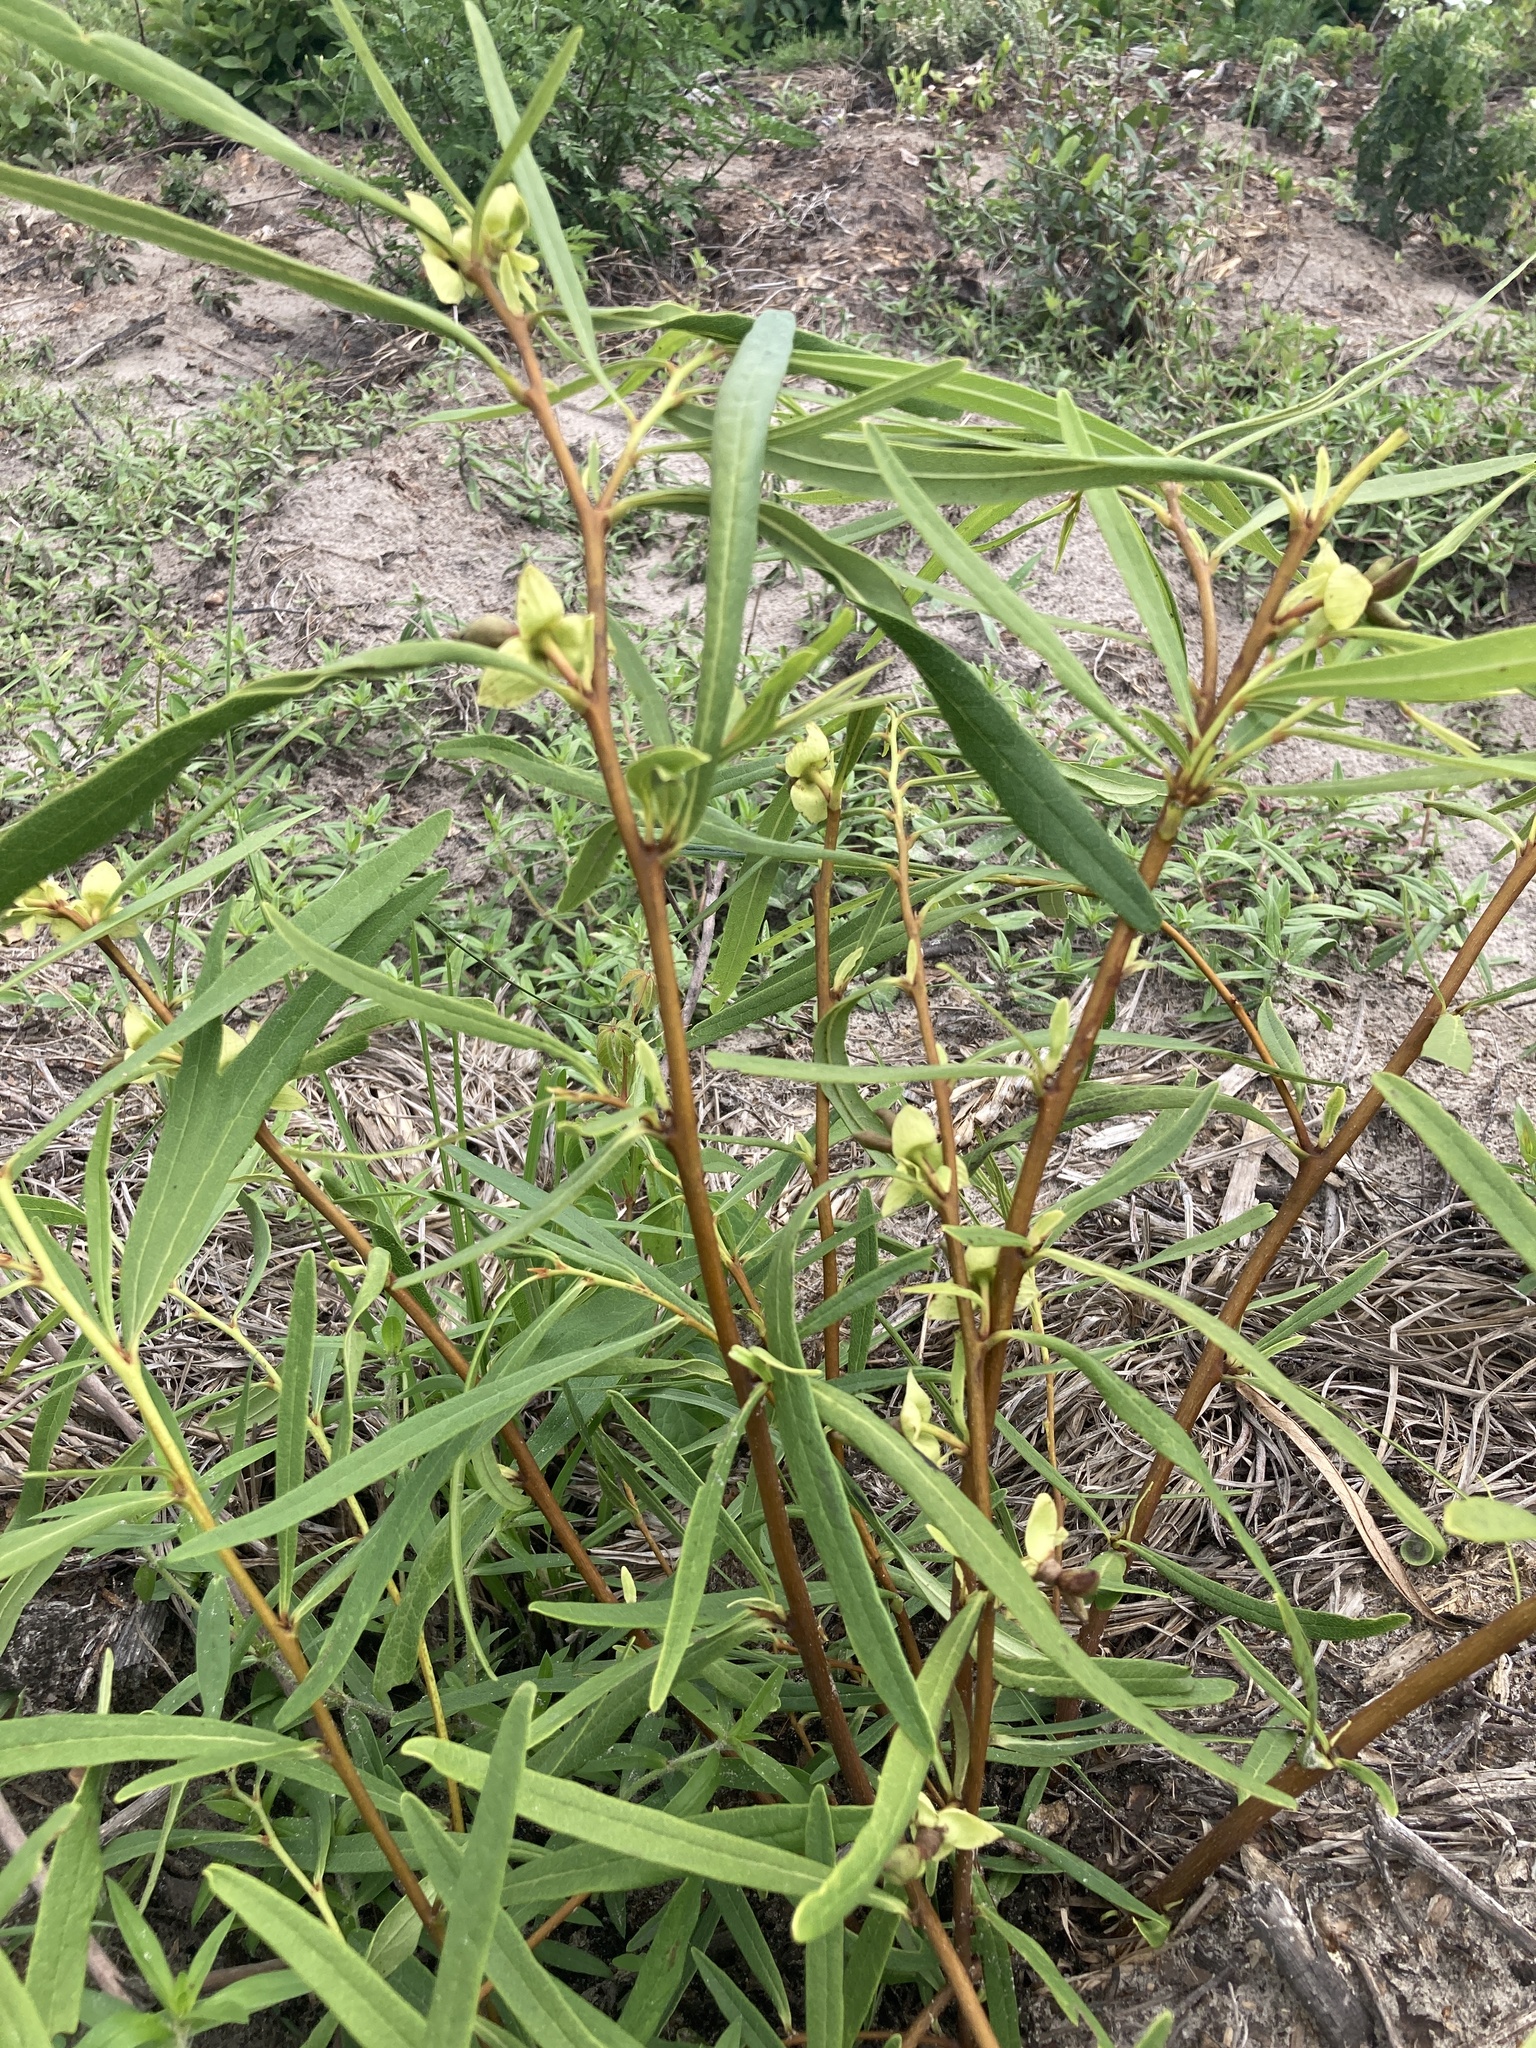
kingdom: Plantae
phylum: Tracheophyta
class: Magnoliopsida
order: Magnoliales
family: Annonaceae
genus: Asimina
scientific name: Asimina longifolia
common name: Polecatbush
